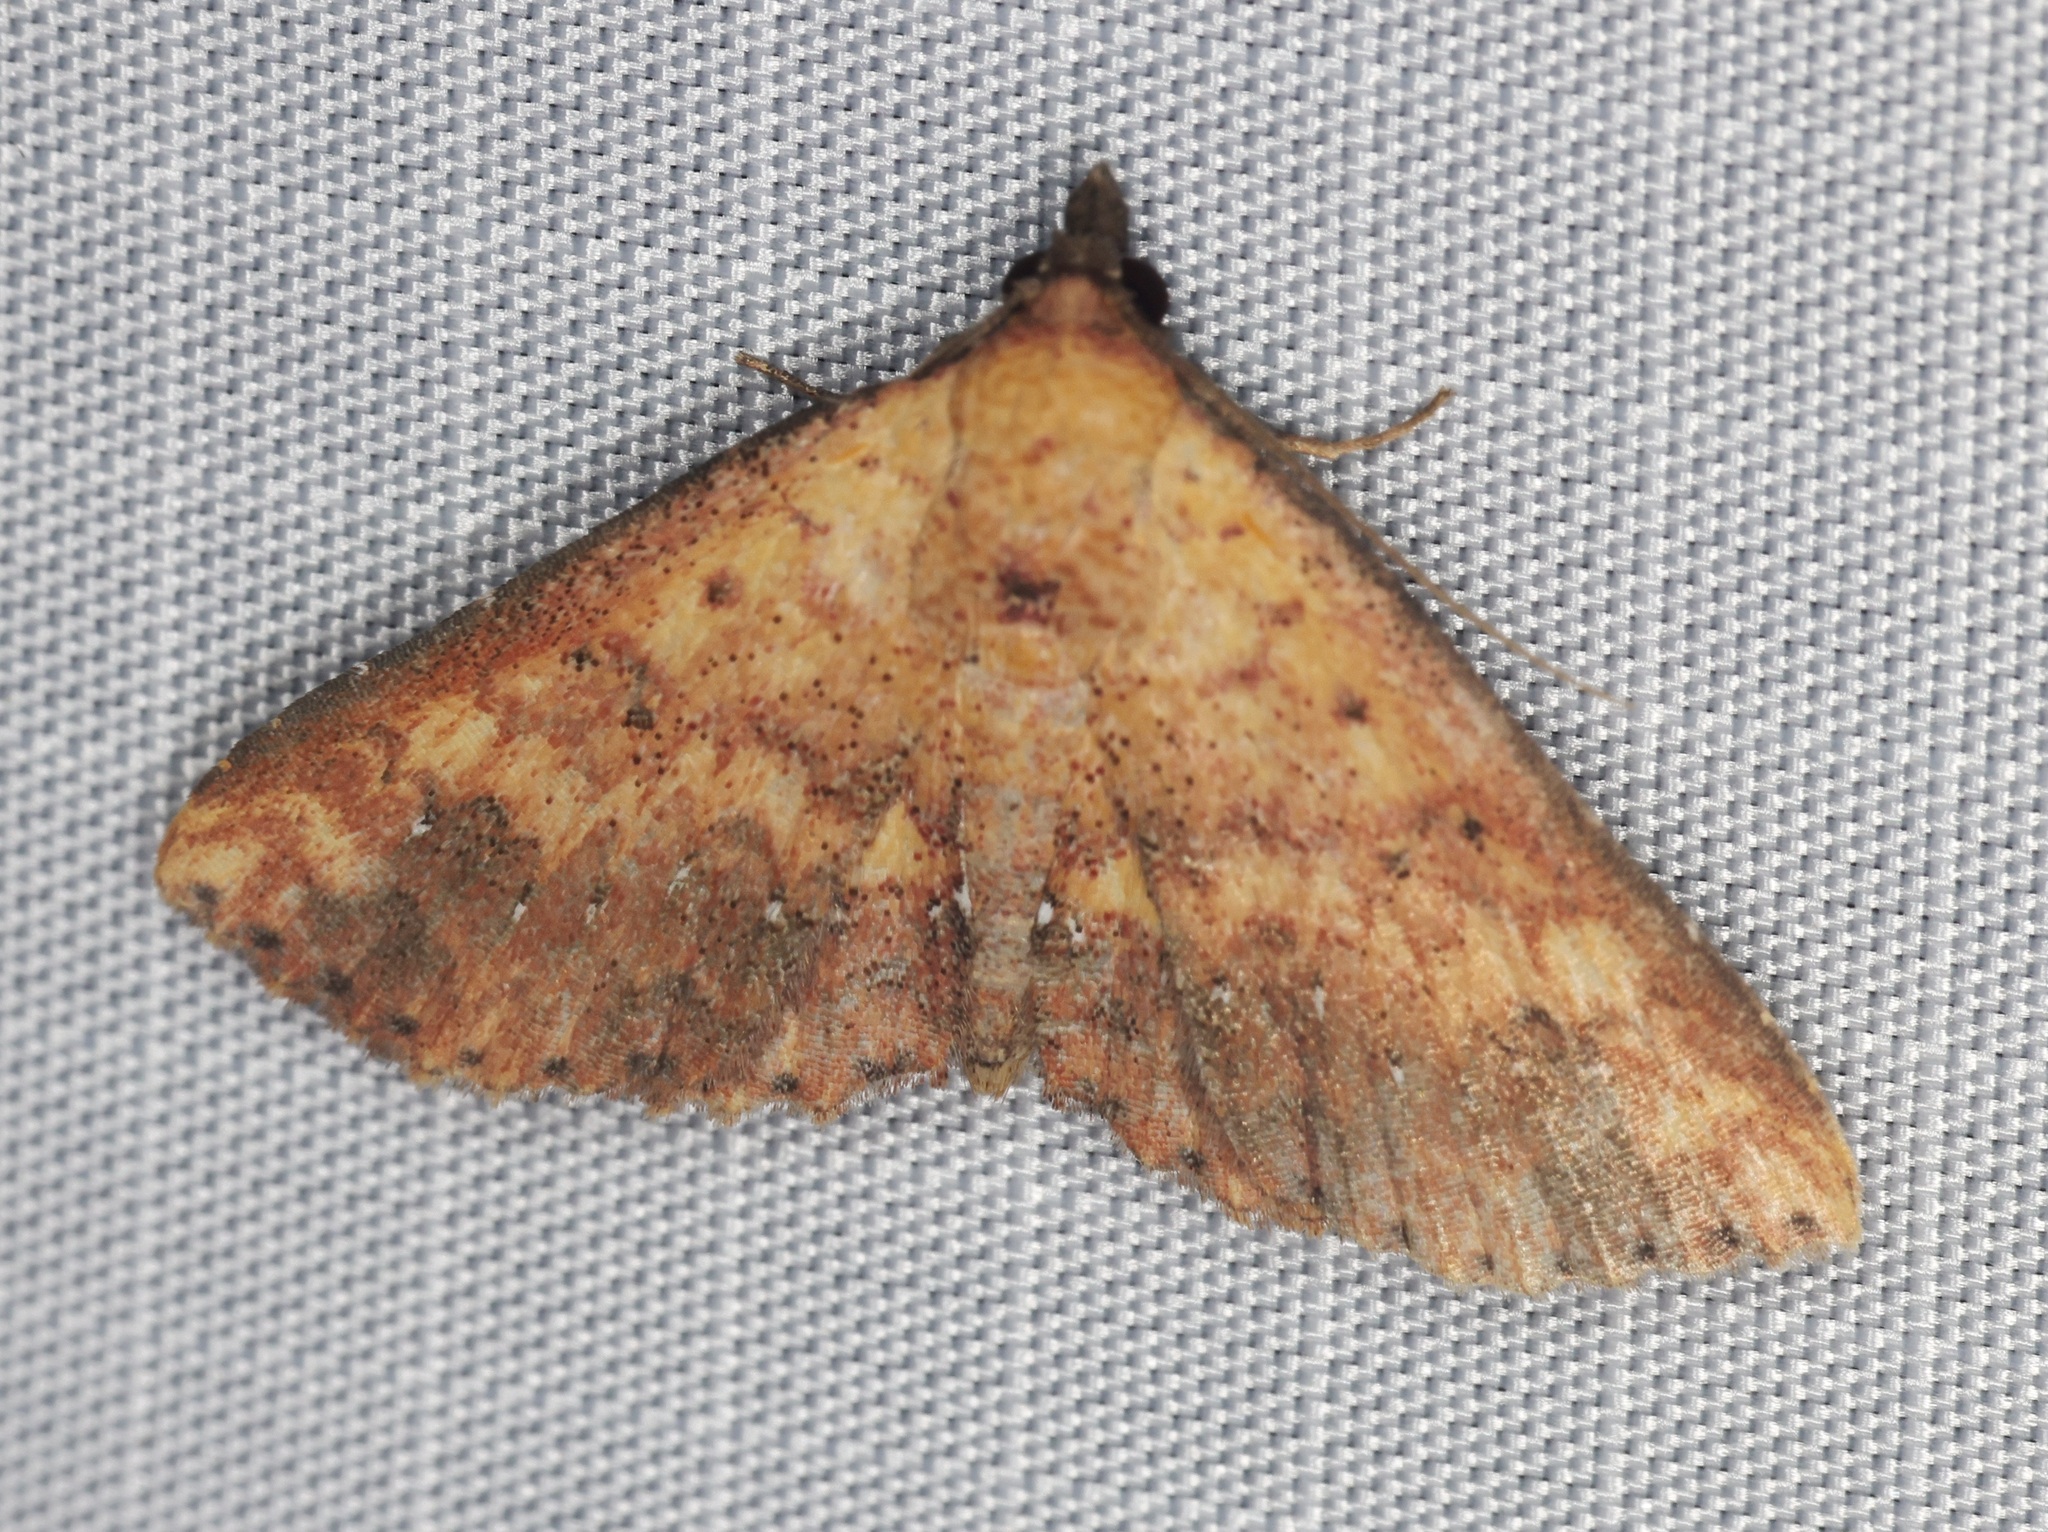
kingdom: Animalia
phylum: Arthropoda
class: Insecta
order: Lepidoptera
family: Noctuidae
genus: Cerynea
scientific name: Cerynea ustula
